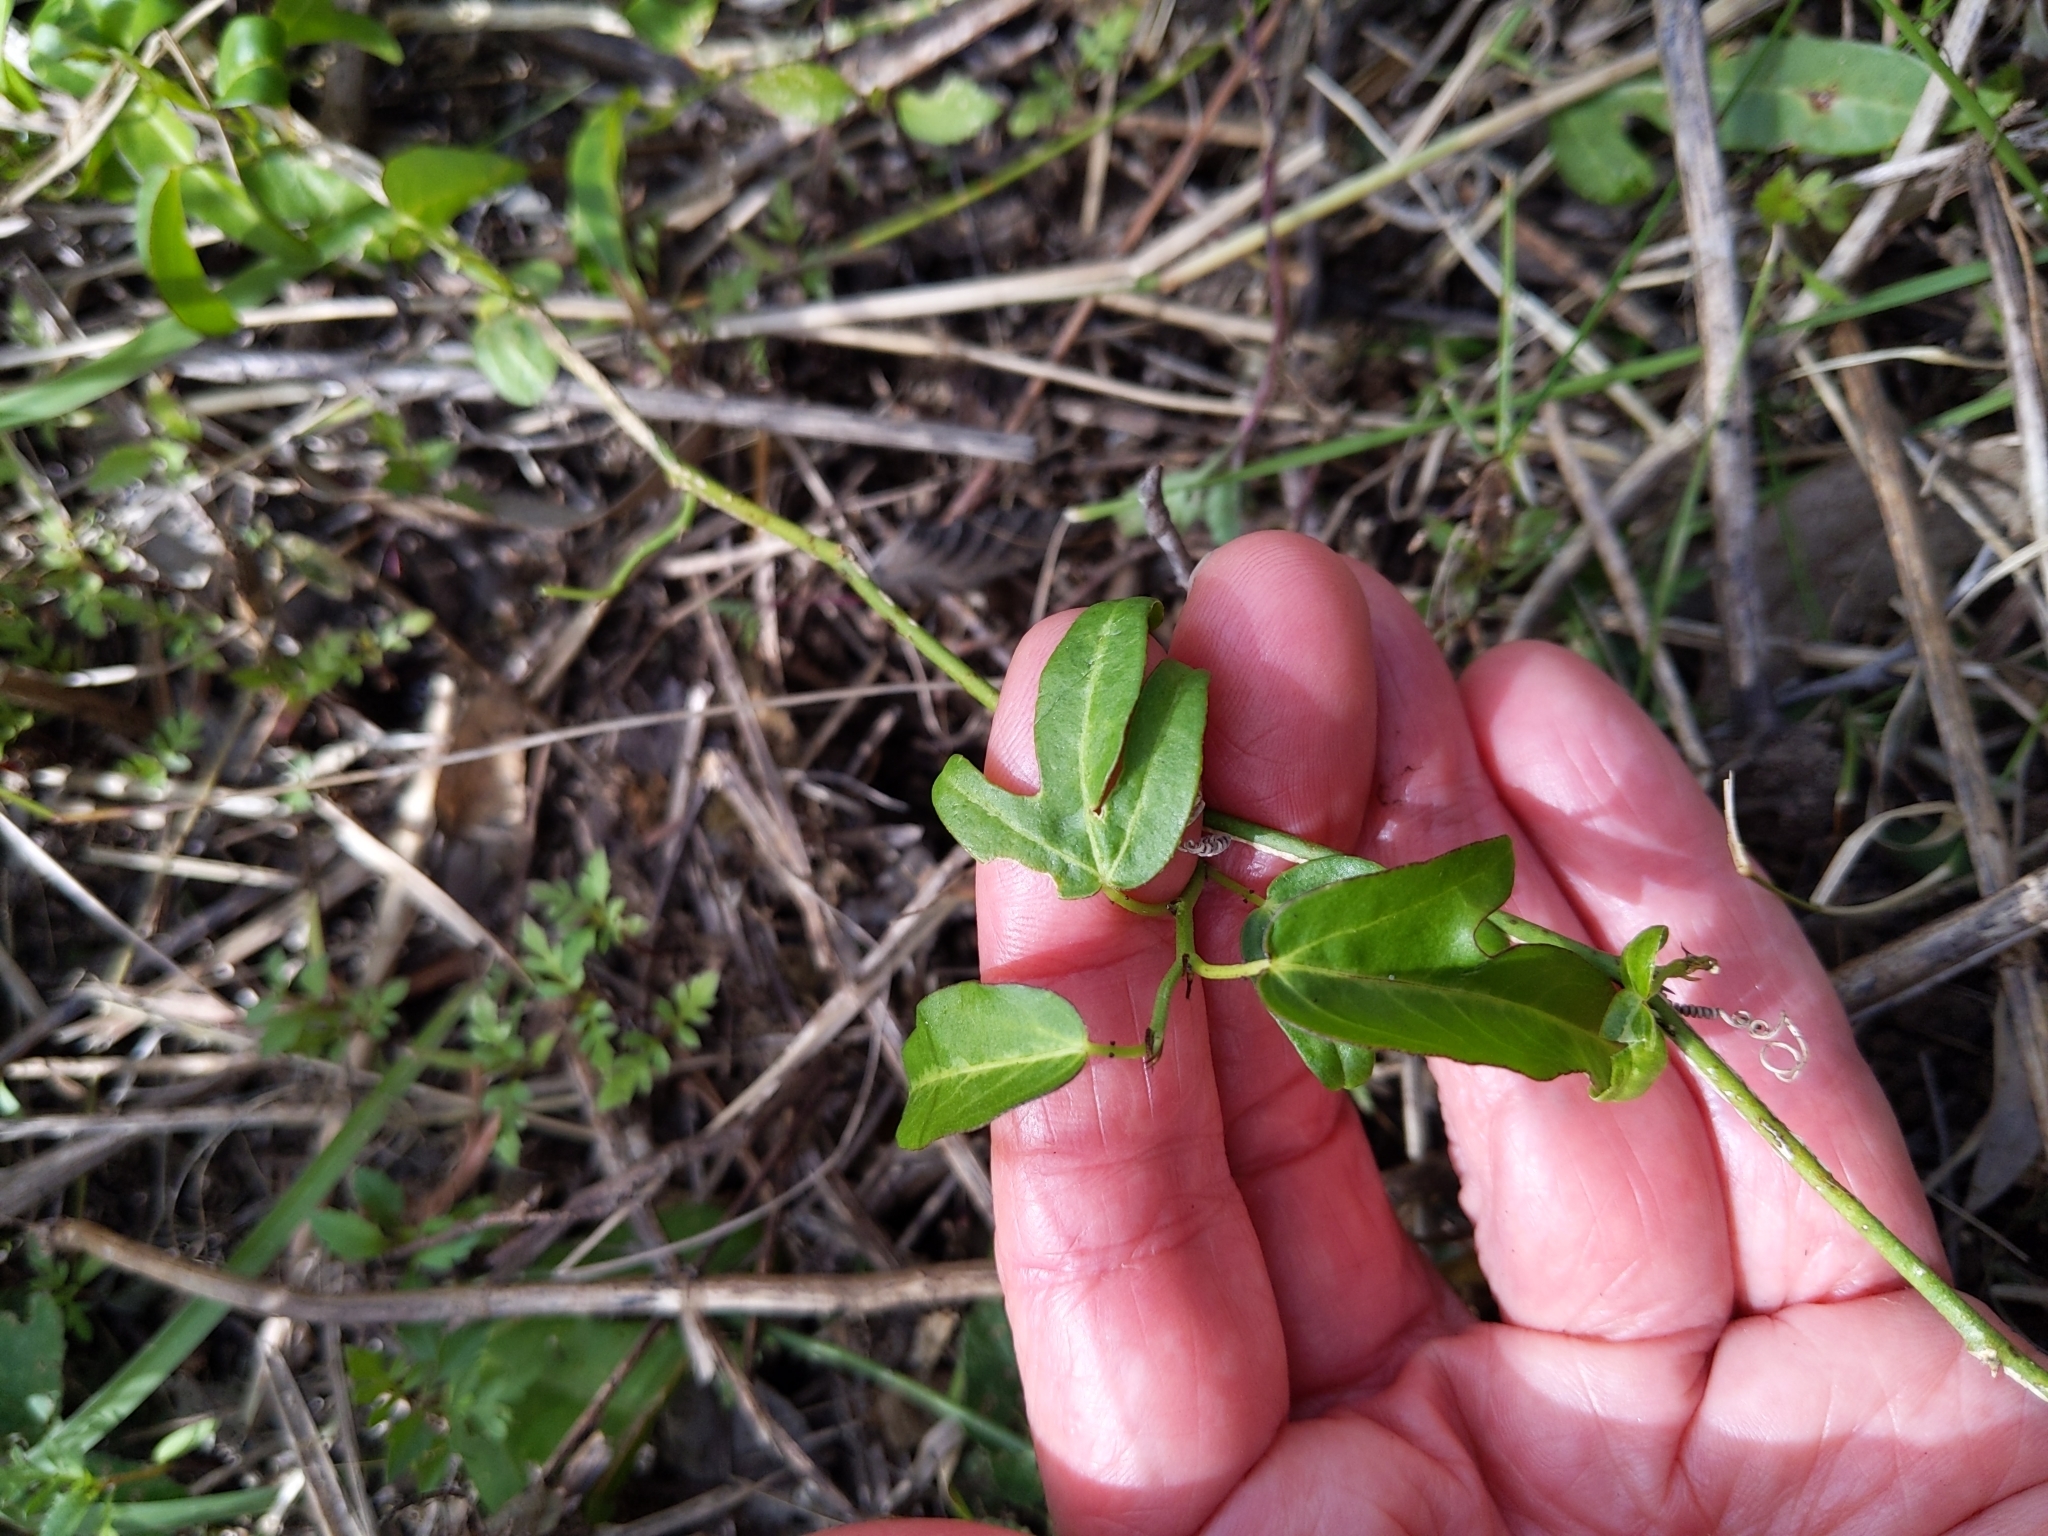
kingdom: Plantae
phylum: Tracheophyta
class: Magnoliopsida
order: Malpighiales
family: Passifloraceae
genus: Passiflora
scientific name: Passiflora pallida
